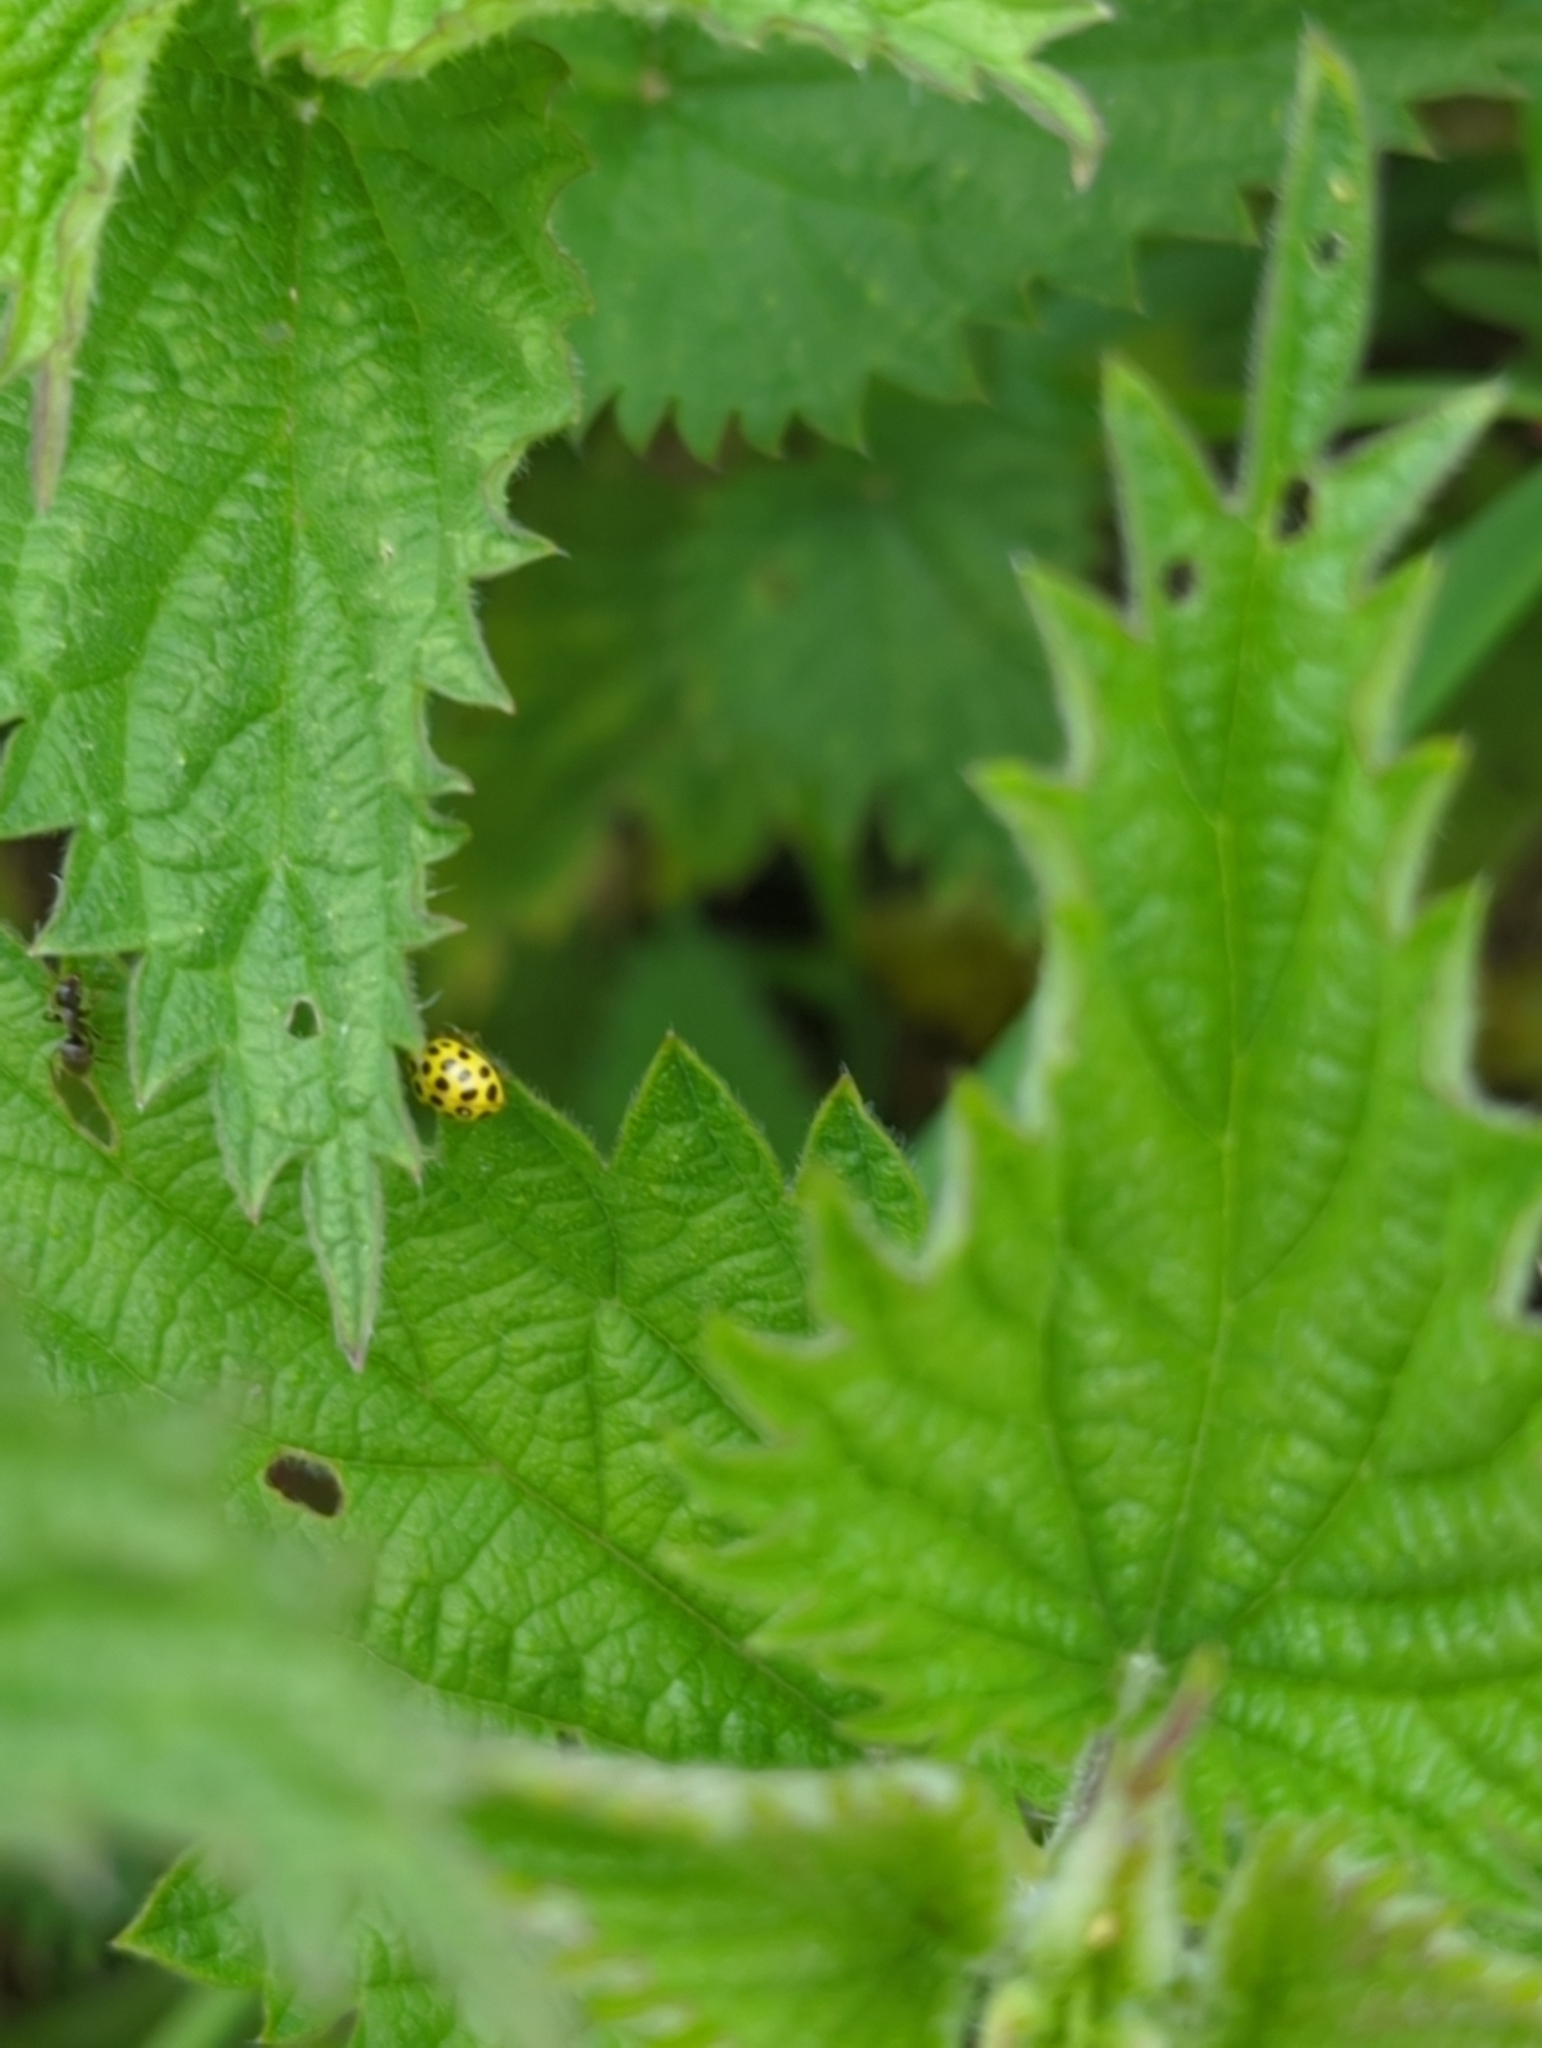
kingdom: Animalia
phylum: Arthropoda
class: Insecta
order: Coleoptera
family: Coccinellidae
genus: Psyllobora
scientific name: Psyllobora vigintiduopunctata
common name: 22-spot ladybird
